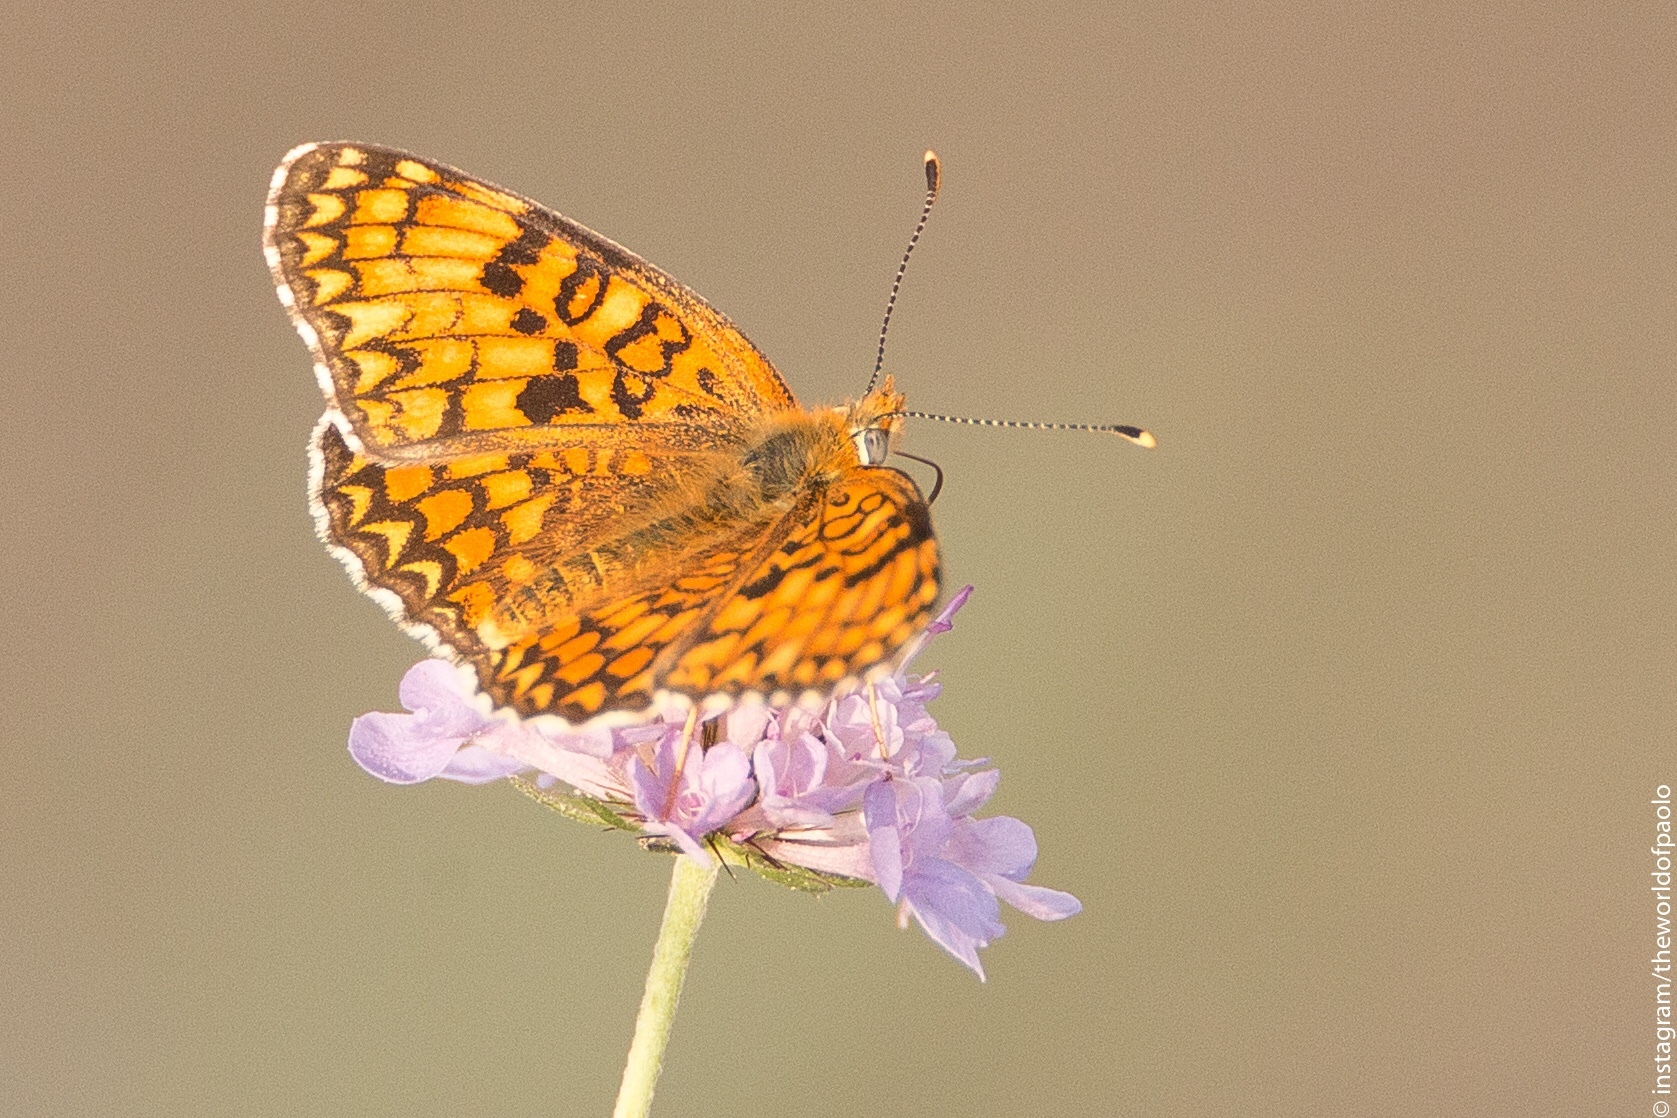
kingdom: Animalia
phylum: Arthropoda
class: Insecta
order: Lepidoptera
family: Nymphalidae
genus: Melitaea
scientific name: Melitaea phoebe
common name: Knapweed fritillary
